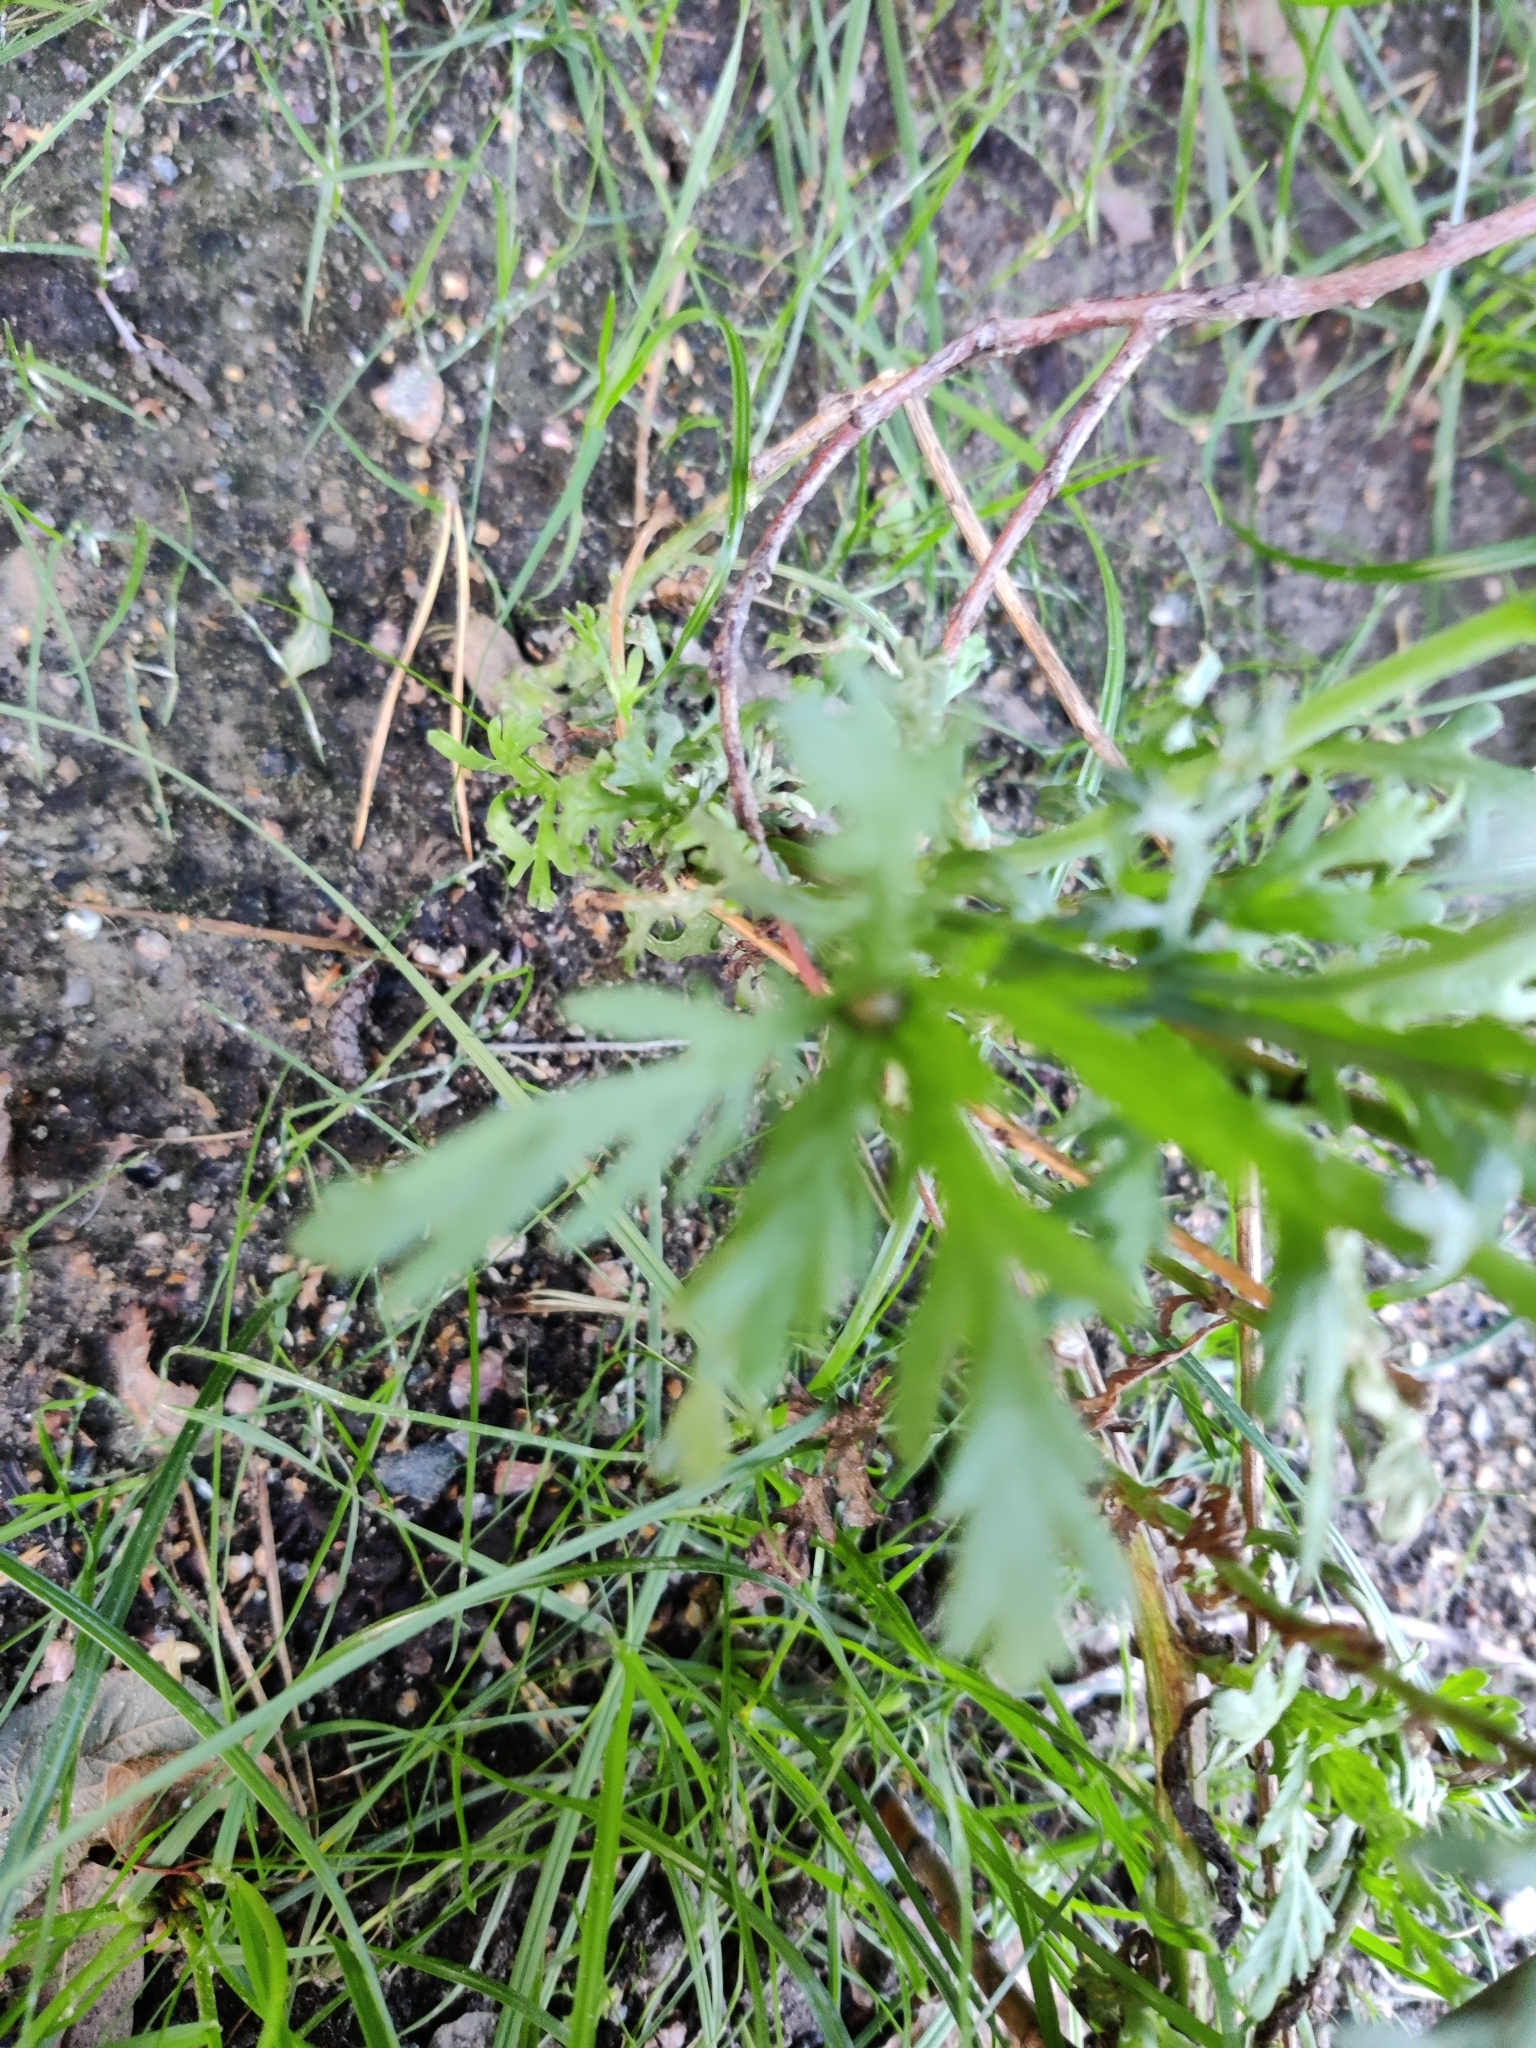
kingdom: Plantae
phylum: Tracheophyta
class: Magnoliopsida
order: Asterales
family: Asteraceae
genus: Cota
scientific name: Cota tinctoria
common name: Golden chamomile
